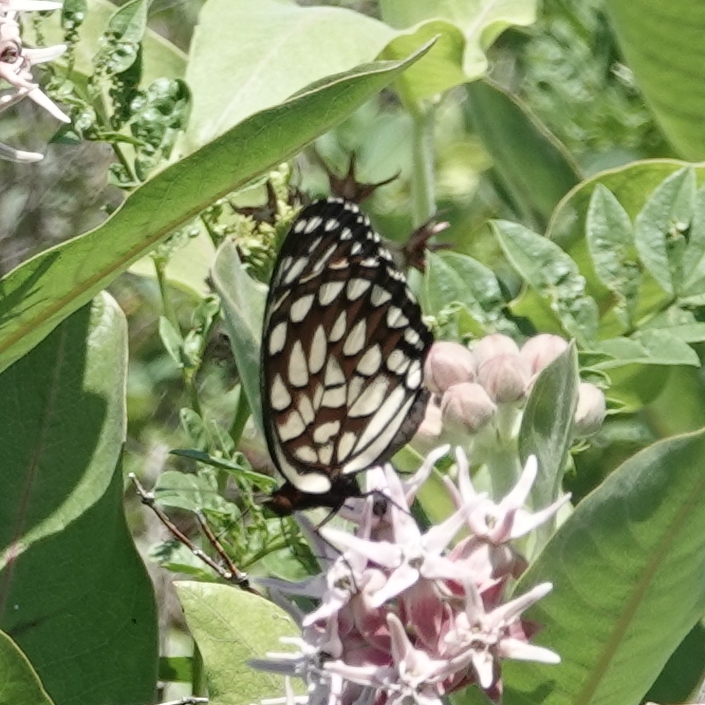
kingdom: Animalia
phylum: Arthropoda
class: Insecta
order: Lepidoptera
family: Nymphalidae
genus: Speyeria
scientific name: Speyeria idalia
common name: Regal fritillary
